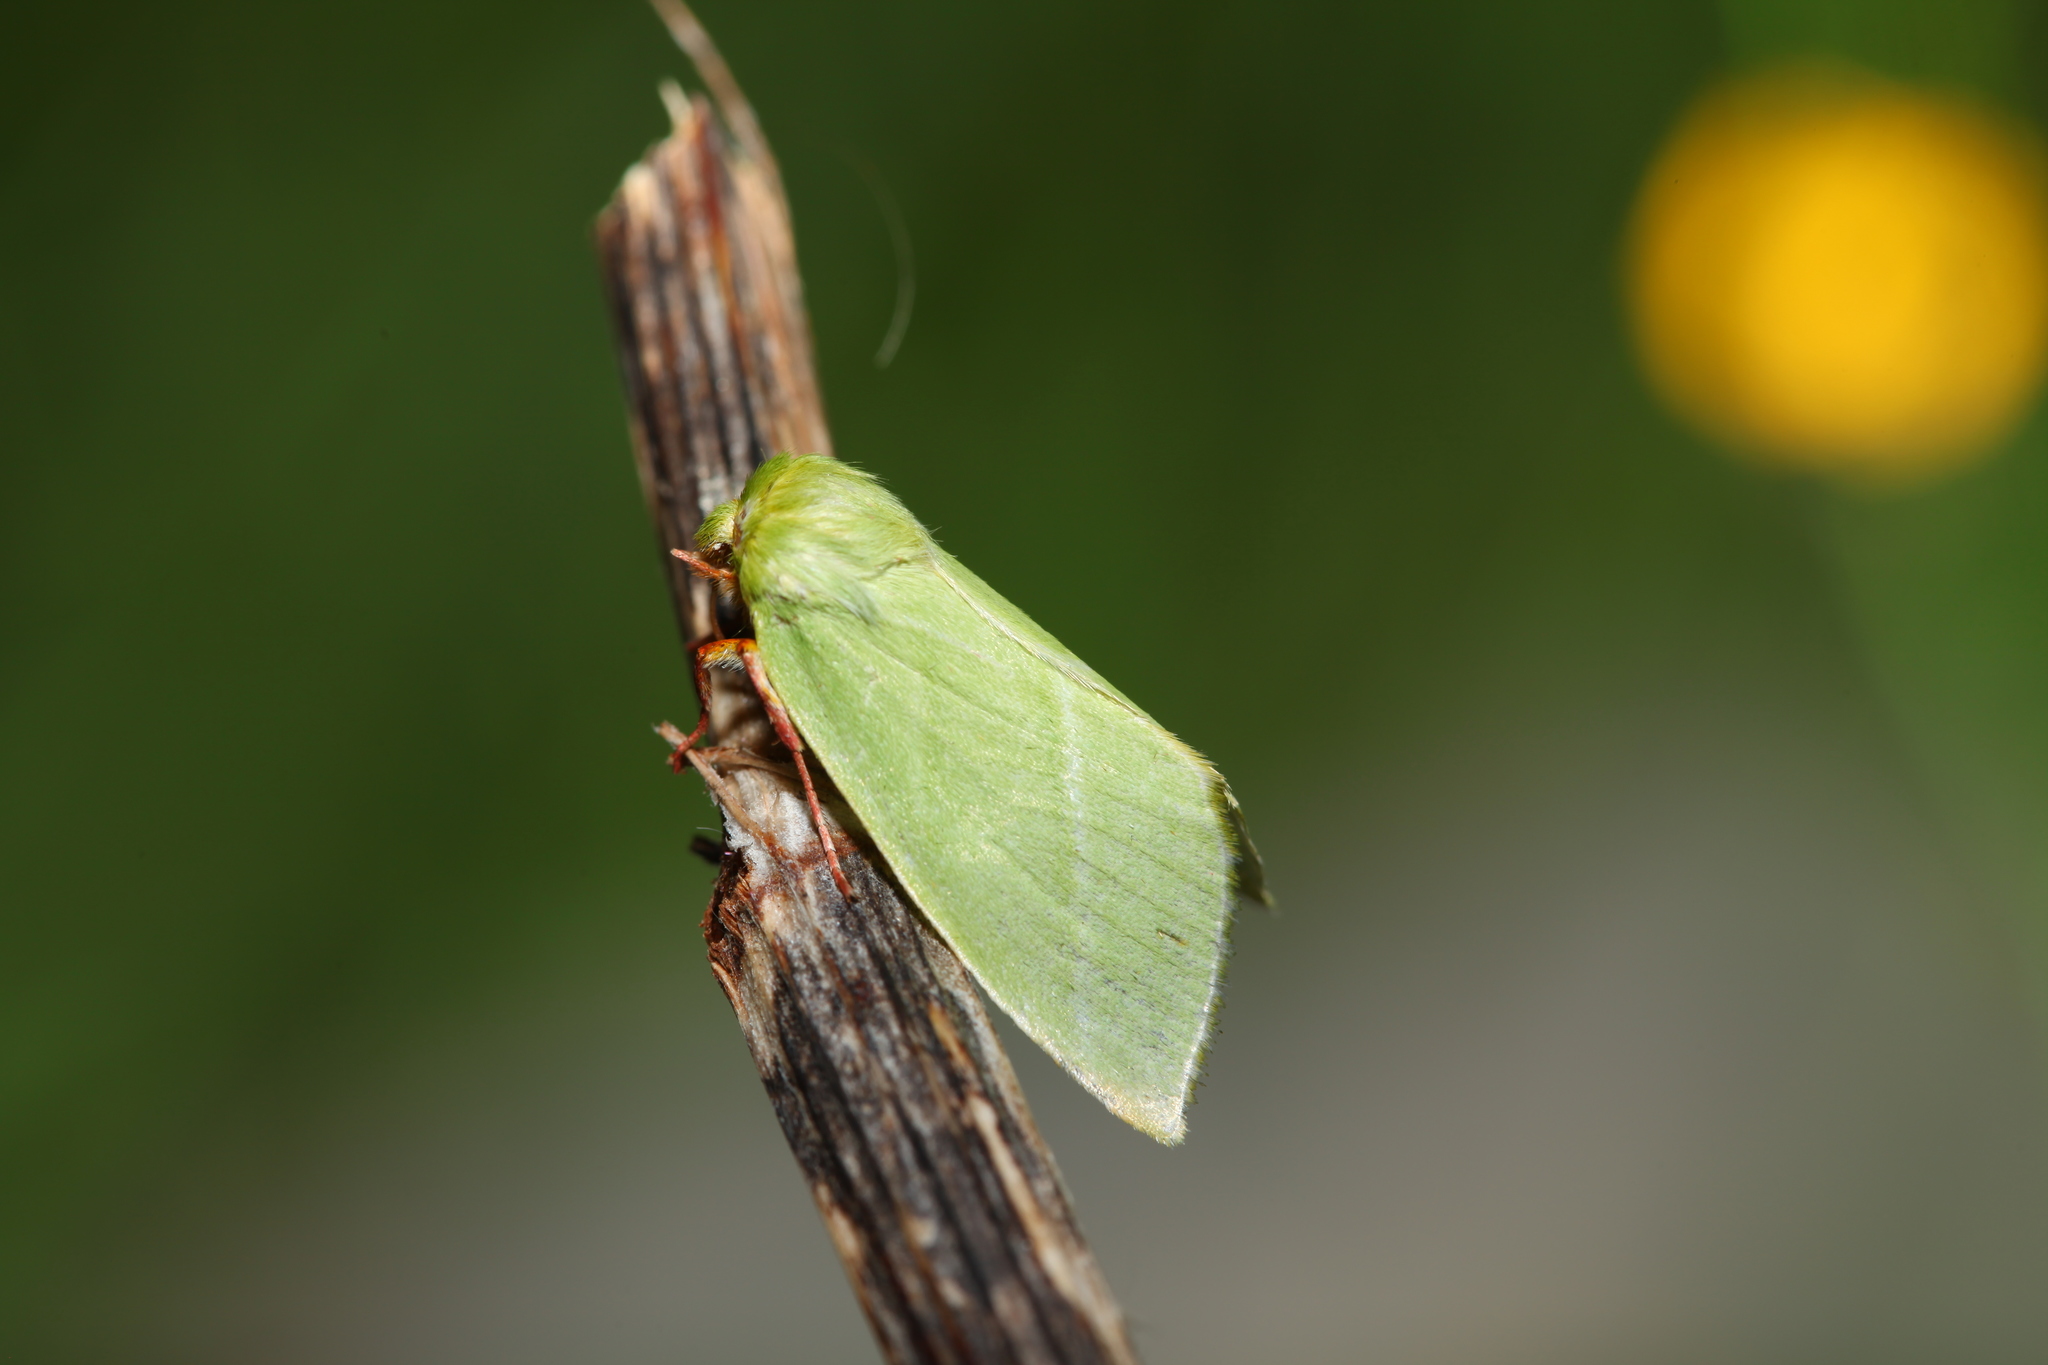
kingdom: Animalia
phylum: Arthropoda
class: Insecta
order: Lepidoptera
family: Nolidae
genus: Pseudoips
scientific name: Pseudoips prasinana
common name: Green silver-lines
